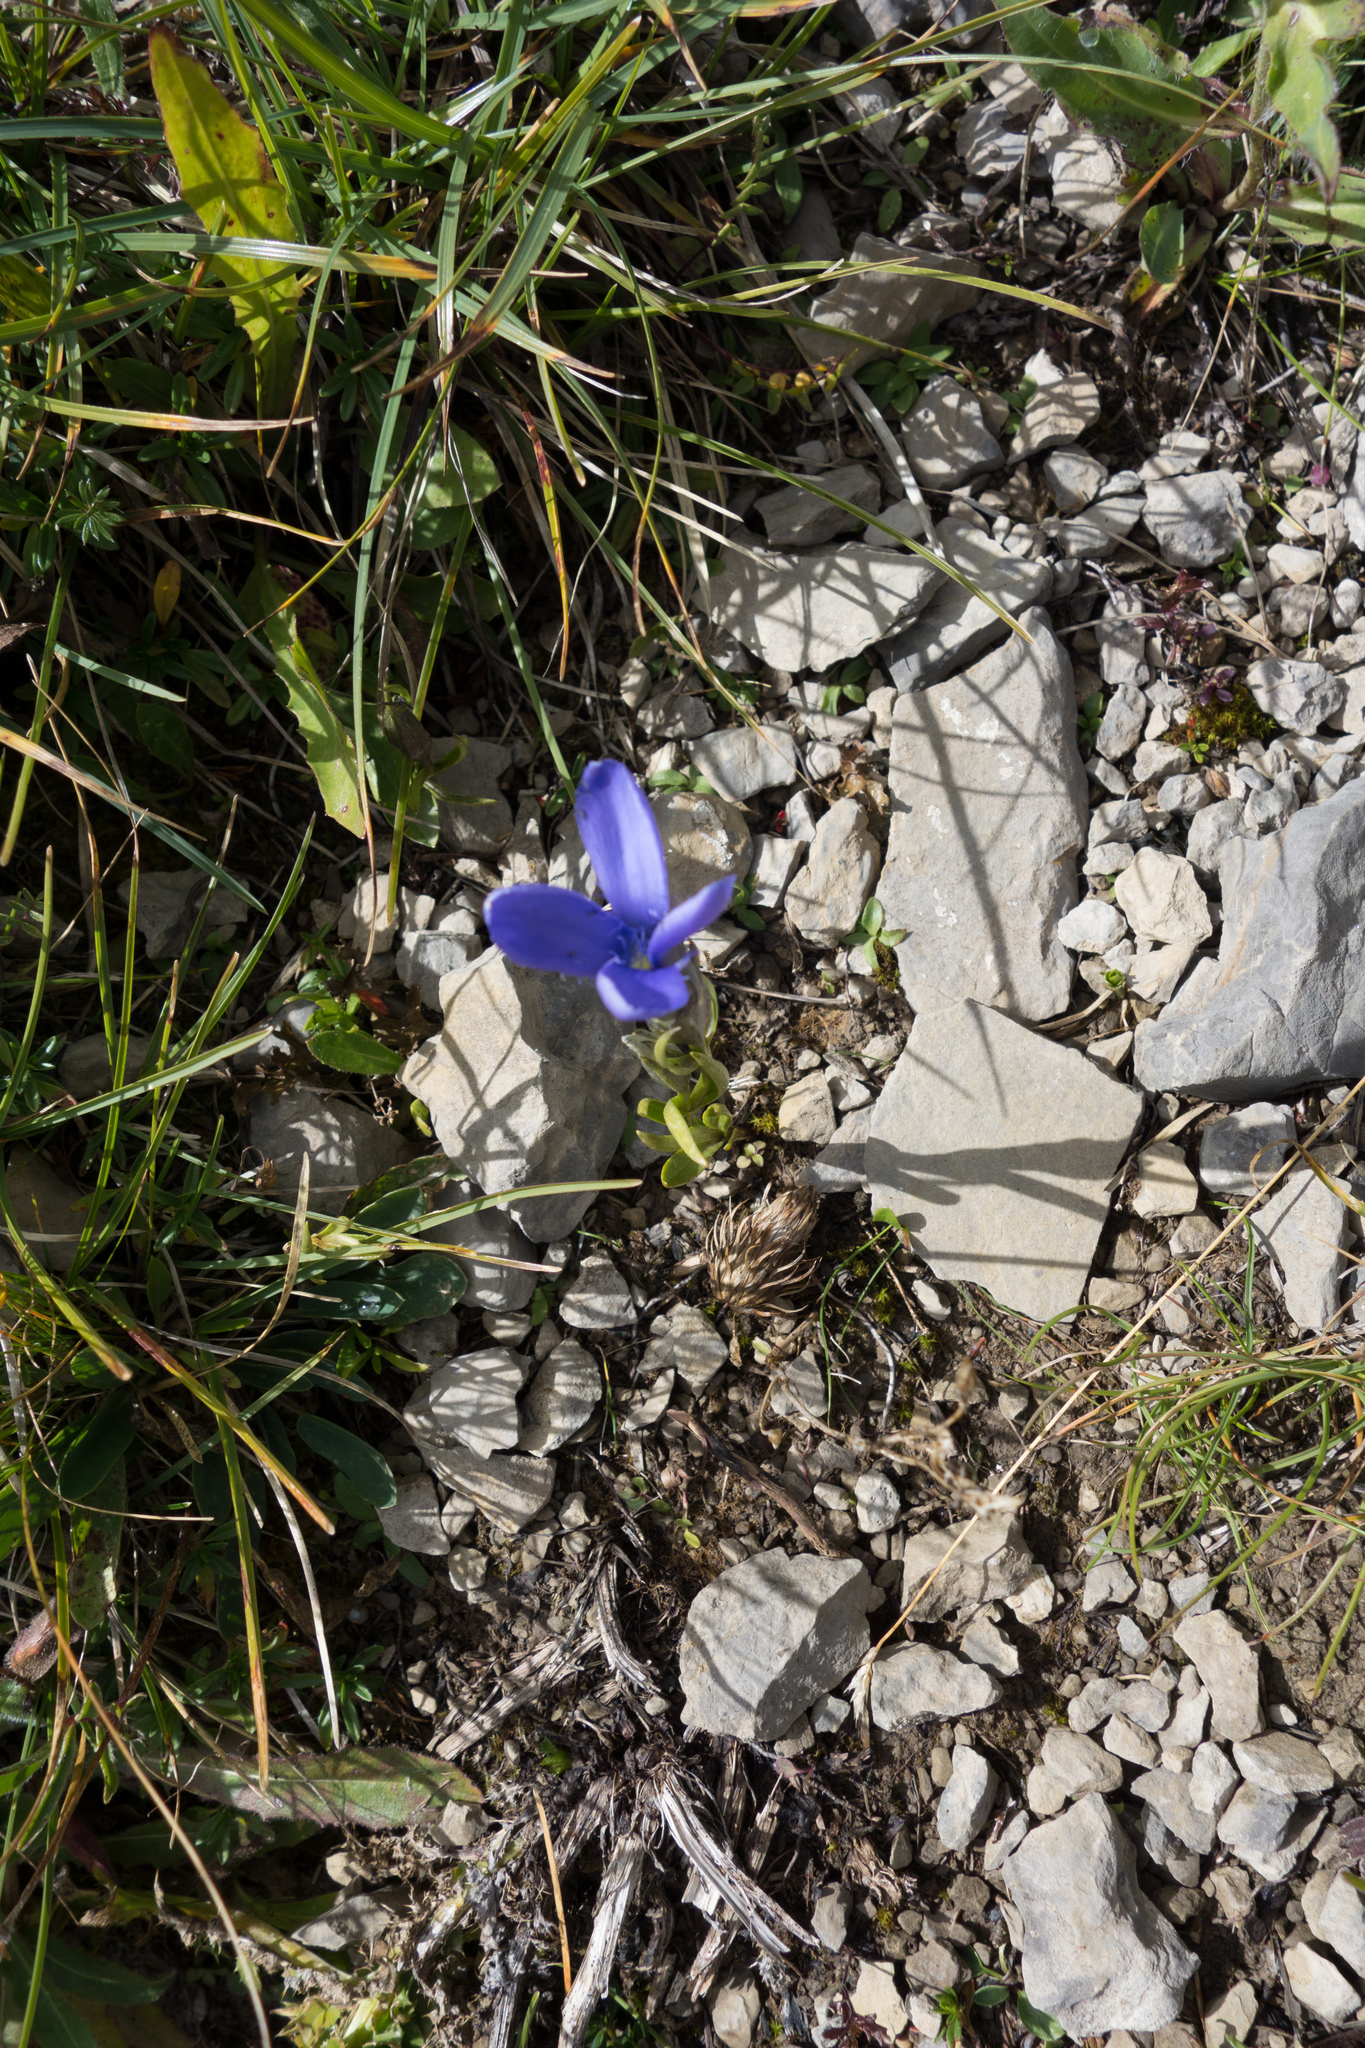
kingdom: Plantae
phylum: Tracheophyta
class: Magnoliopsida
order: Gentianales
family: Gentianaceae
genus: Gentianopsis
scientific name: Gentianopsis ciliata
